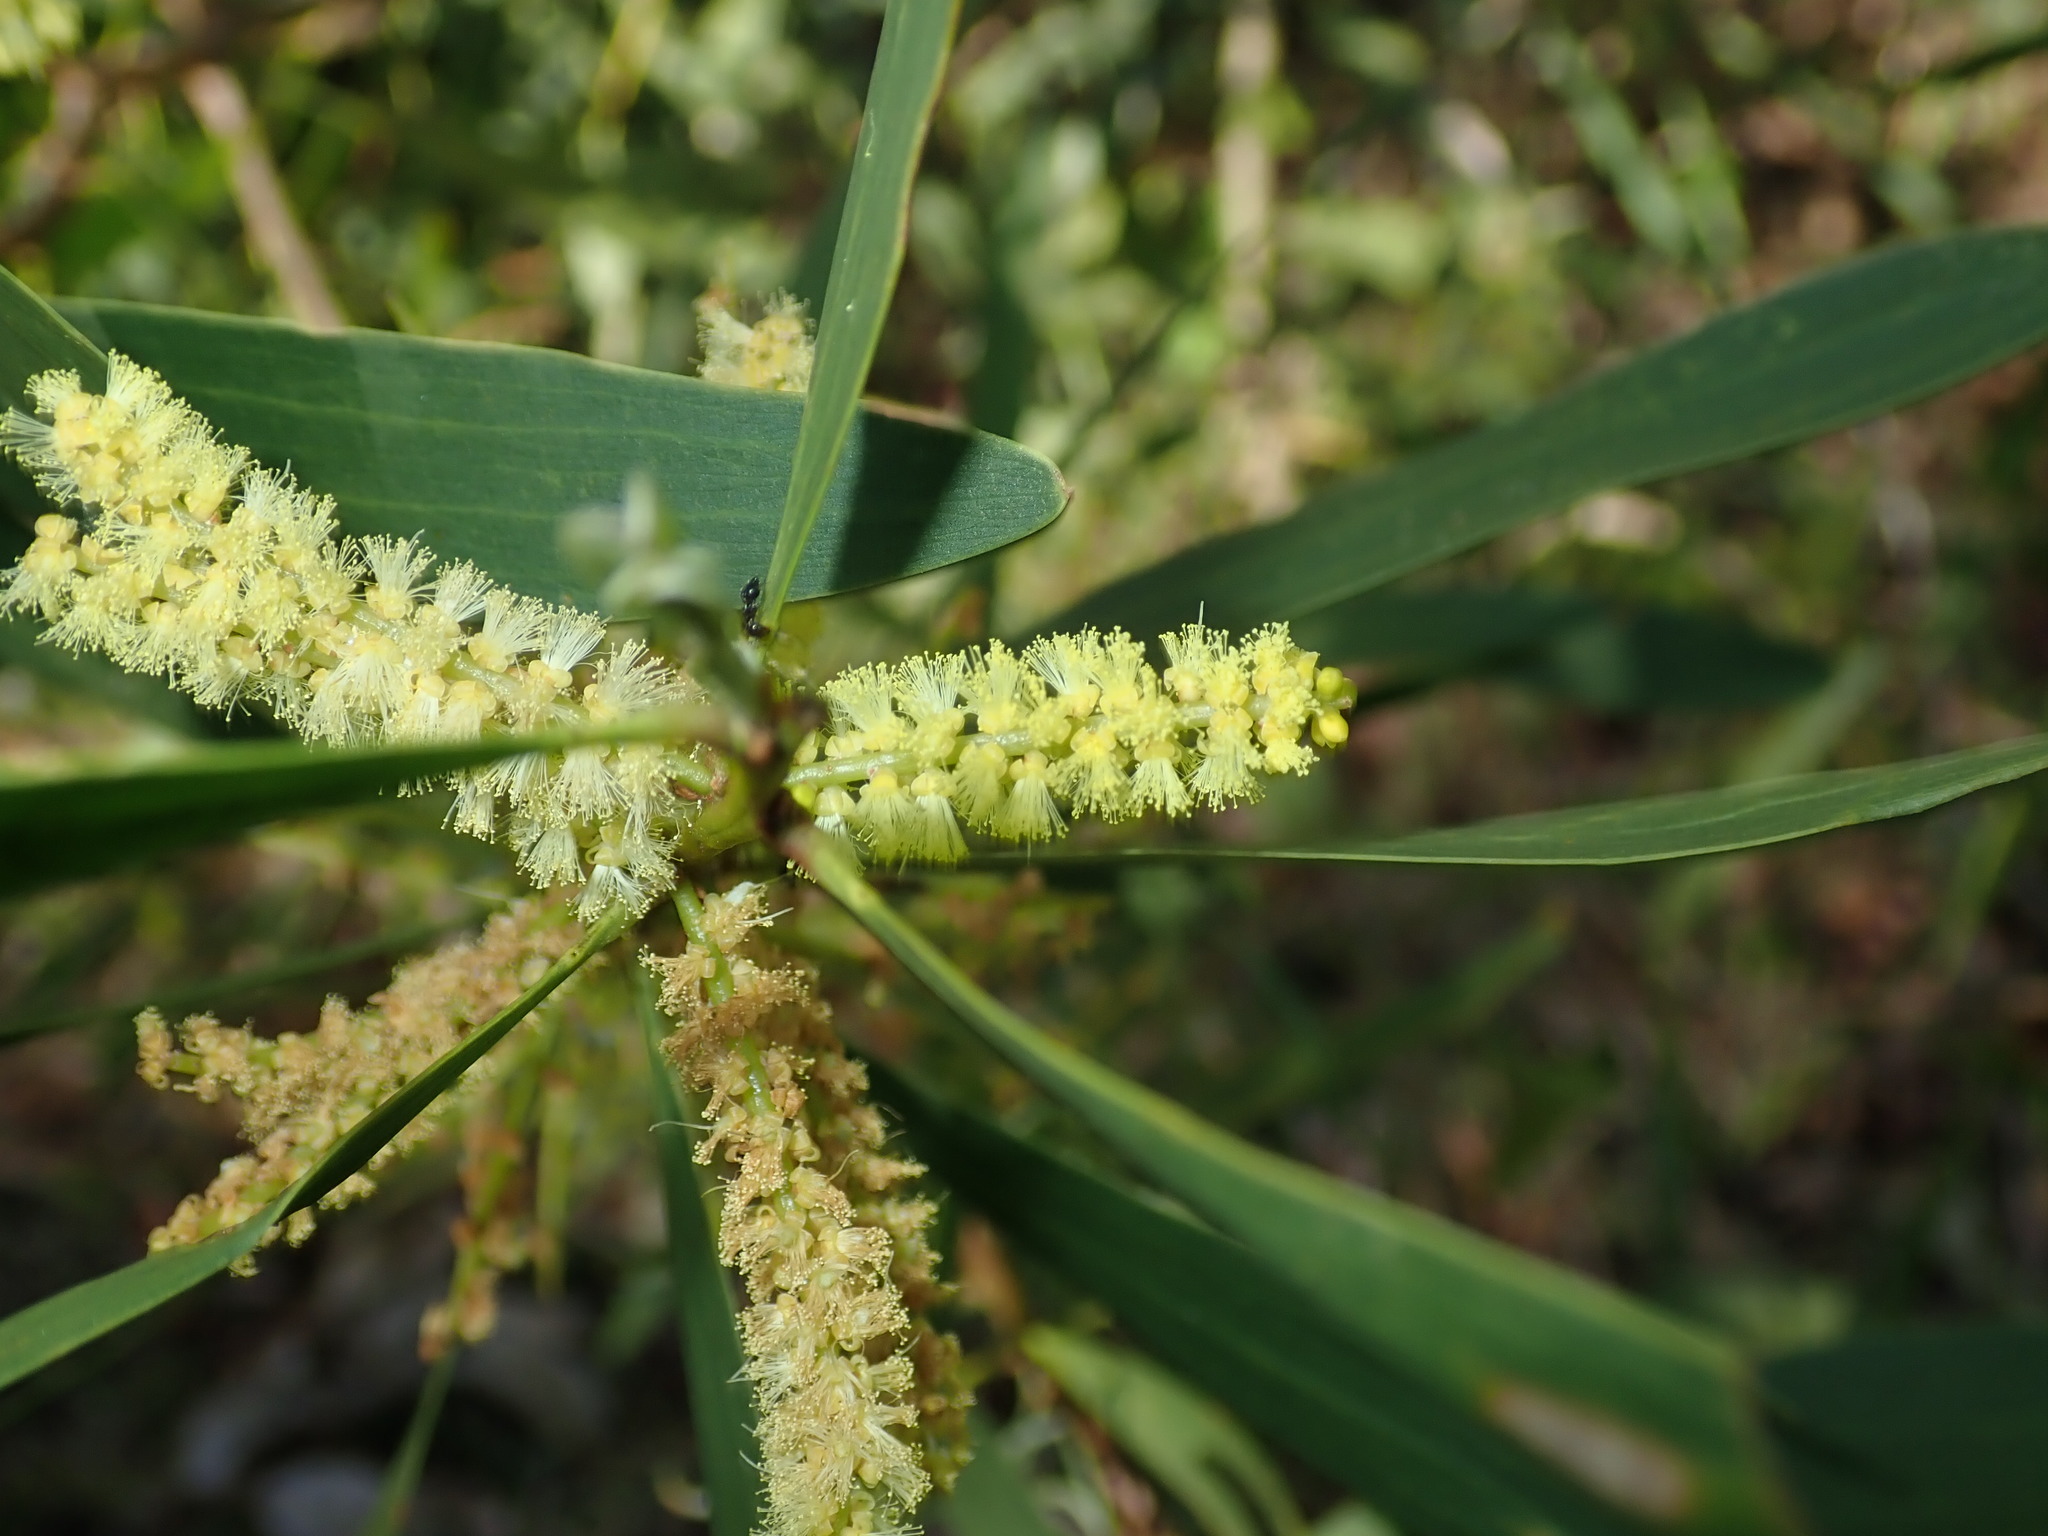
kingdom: Plantae
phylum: Tracheophyta
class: Magnoliopsida
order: Fabales
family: Fabaceae
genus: Acacia
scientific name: Acacia longifolia
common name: Sydney golden wattle
